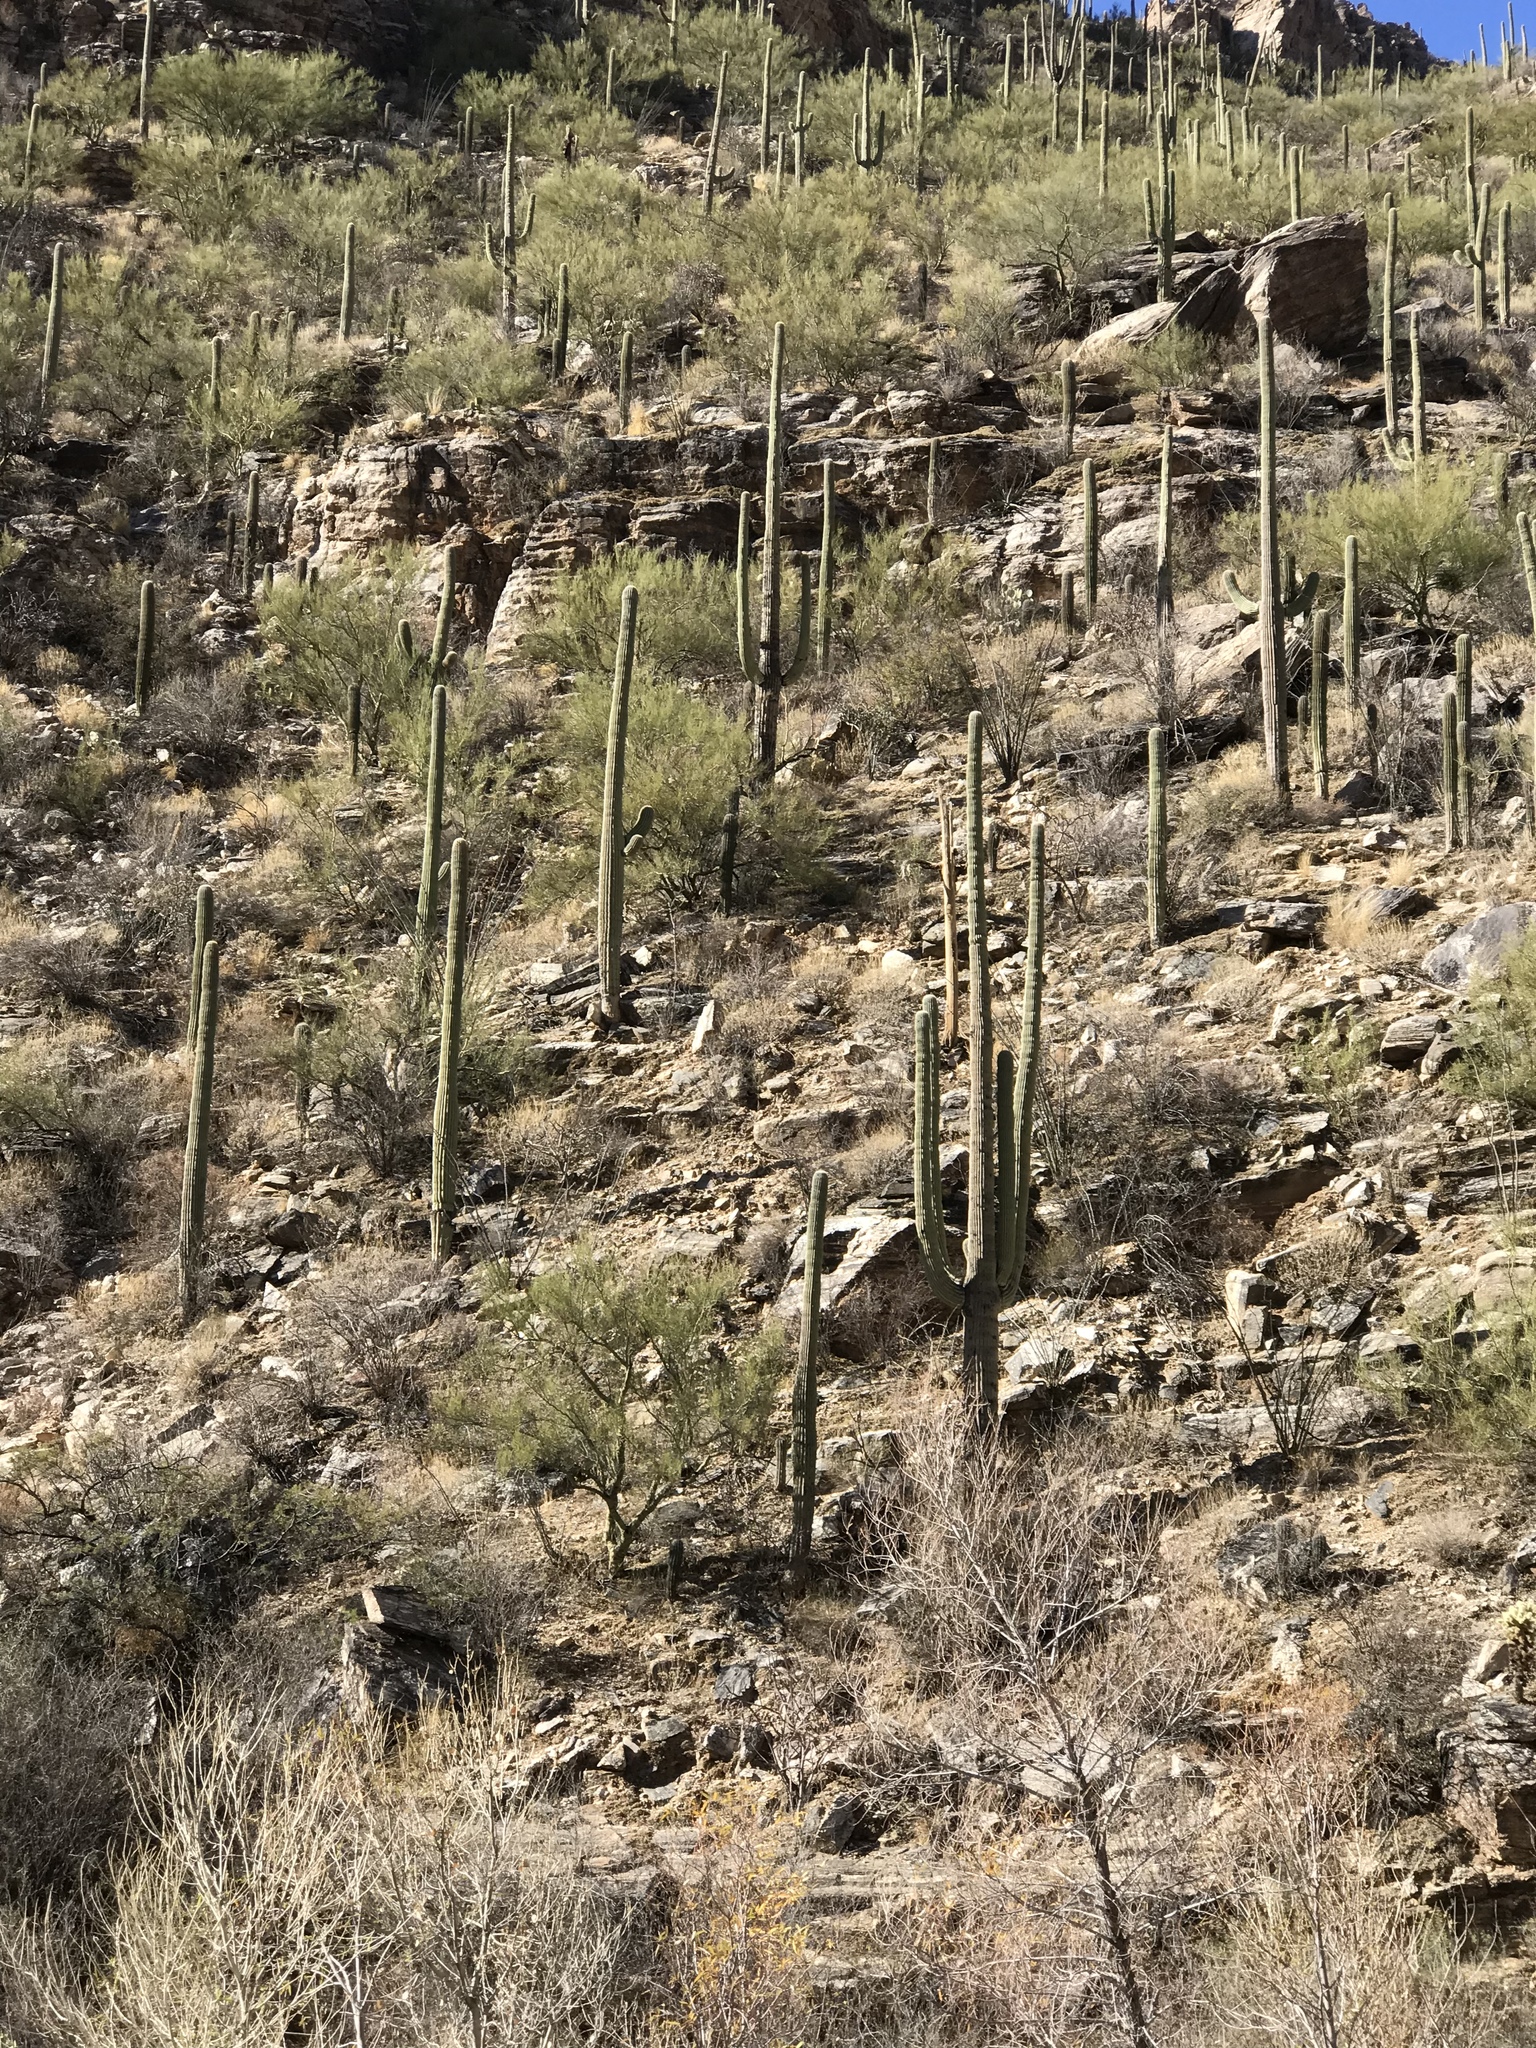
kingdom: Plantae
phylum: Tracheophyta
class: Magnoliopsida
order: Caryophyllales
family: Cactaceae
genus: Carnegiea
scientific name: Carnegiea gigantea
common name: Saguaro
